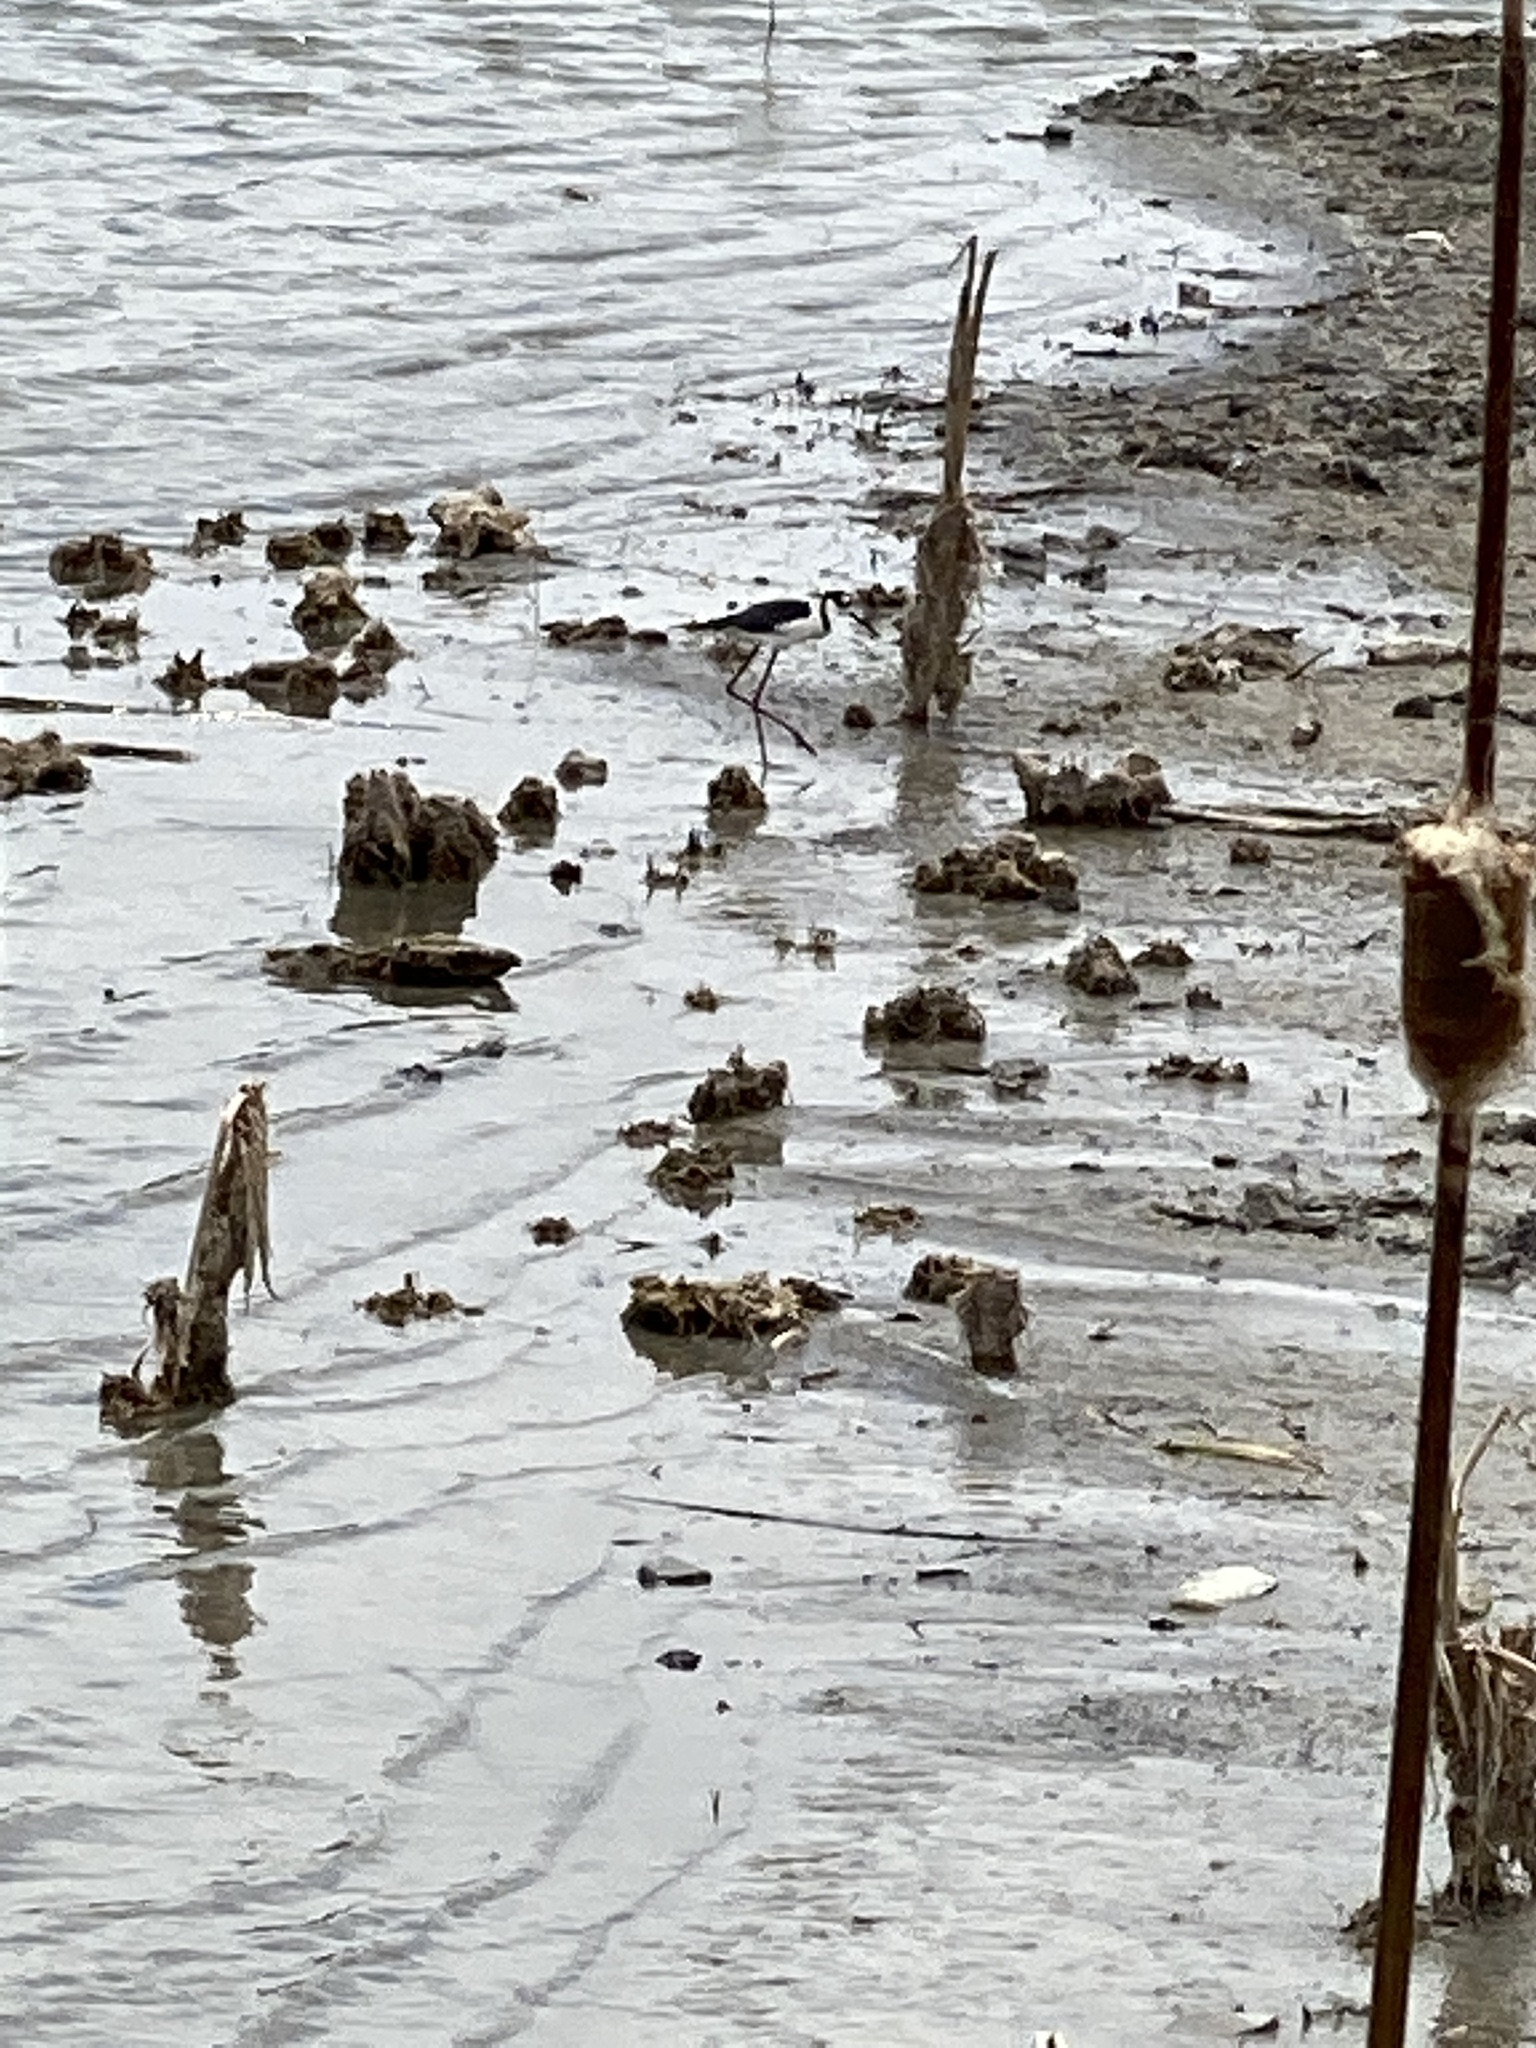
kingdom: Animalia
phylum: Chordata
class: Aves
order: Charadriiformes
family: Recurvirostridae
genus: Himantopus
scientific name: Himantopus mexicanus
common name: Black-necked stilt
